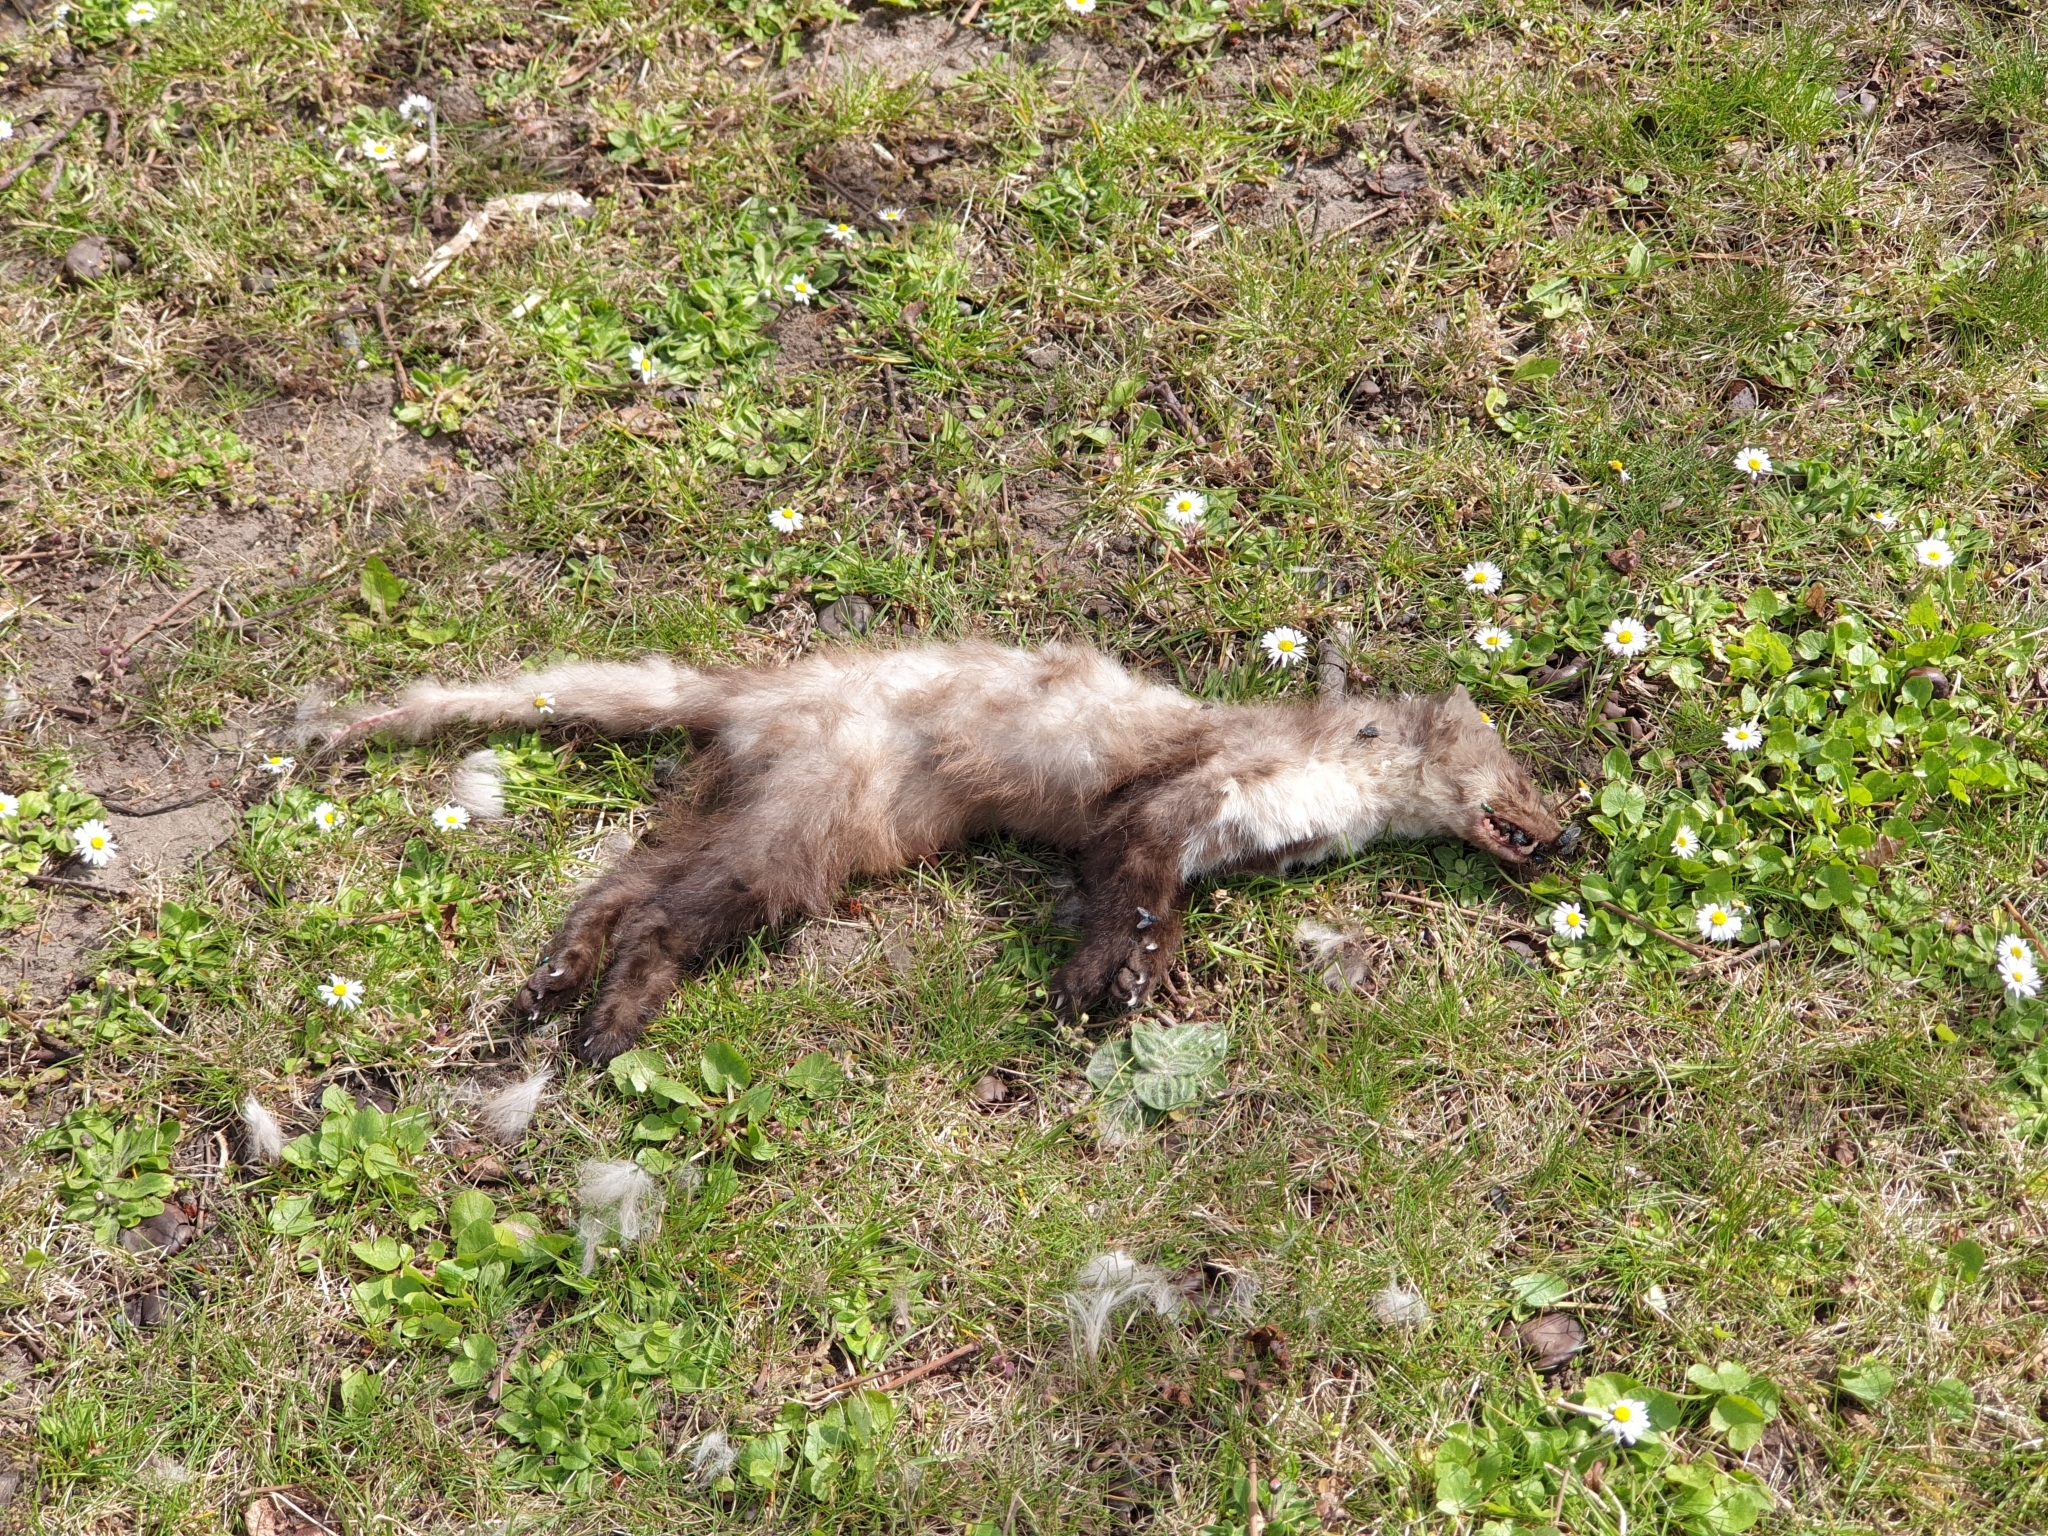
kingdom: Animalia
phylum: Chordata
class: Mammalia
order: Carnivora
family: Mustelidae
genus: Martes
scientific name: Martes foina
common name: Beech marten
